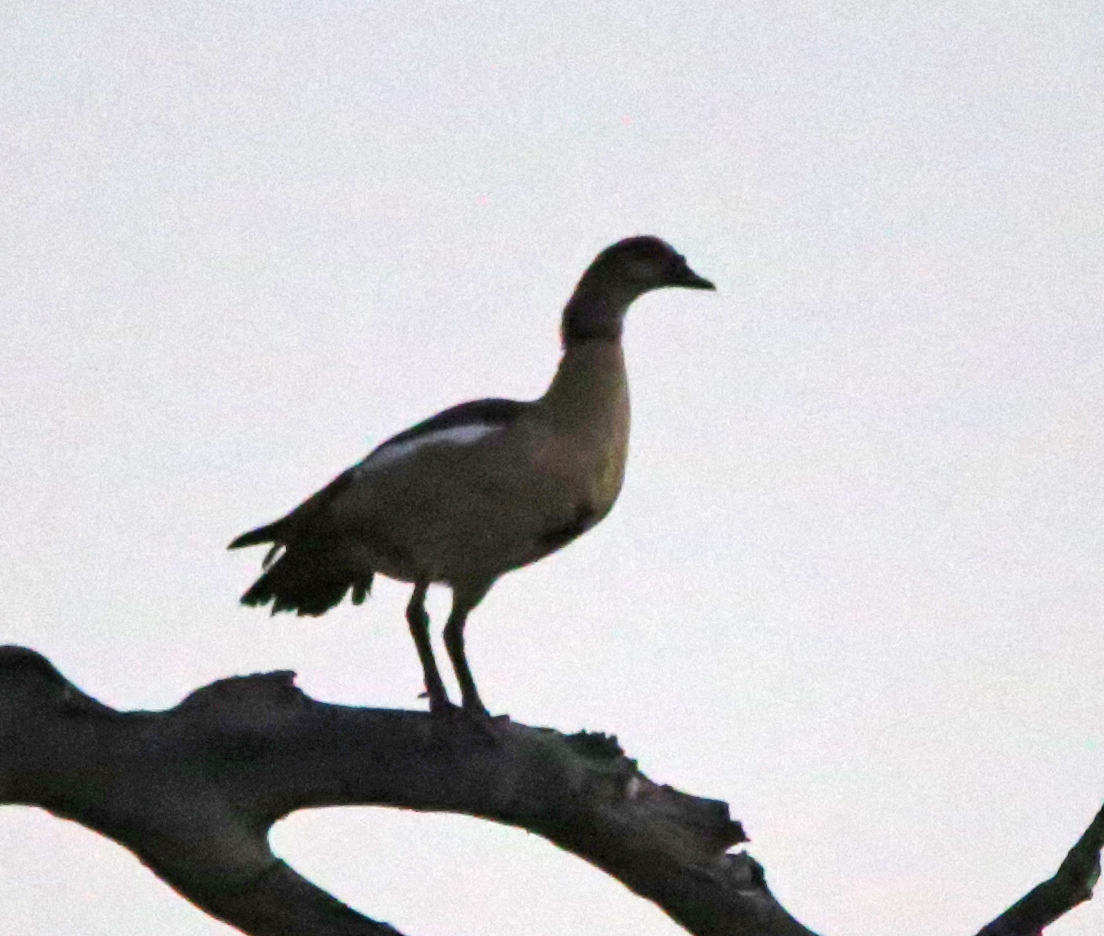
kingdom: Animalia
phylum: Chordata
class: Aves
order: Anseriformes
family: Anatidae
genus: Alopochen
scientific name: Alopochen aegyptiaca
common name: Egyptian goose
